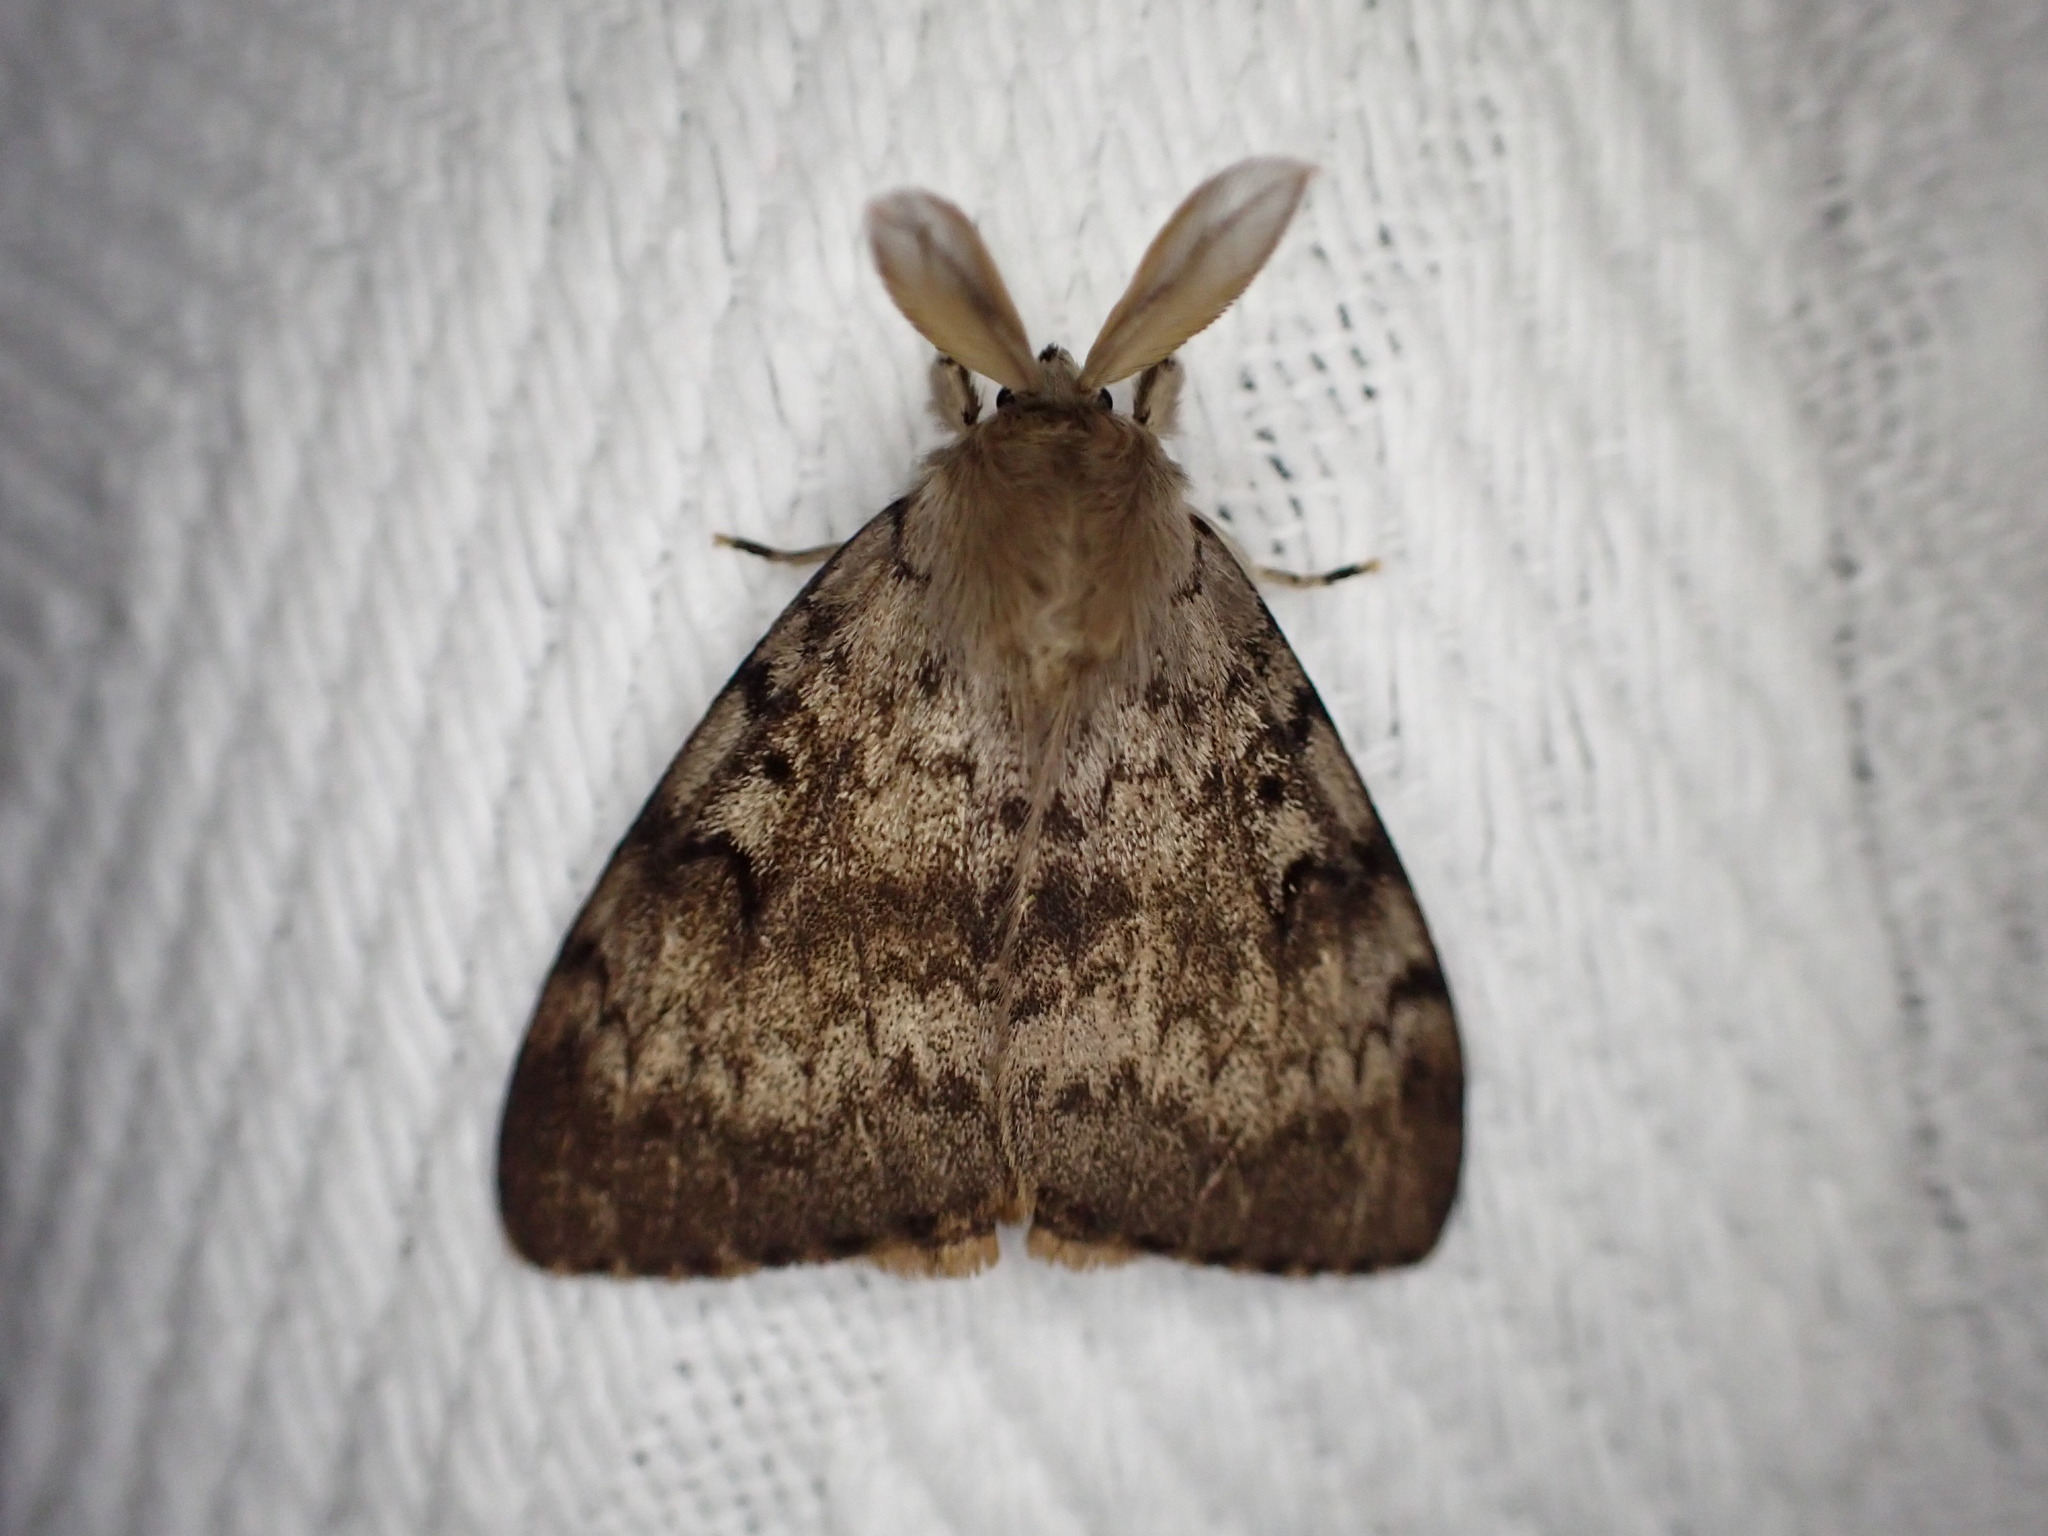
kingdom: Animalia
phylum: Arthropoda
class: Insecta
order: Lepidoptera
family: Erebidae
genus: Lymantria
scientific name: Lymantria dispar
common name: Gypsy moth
